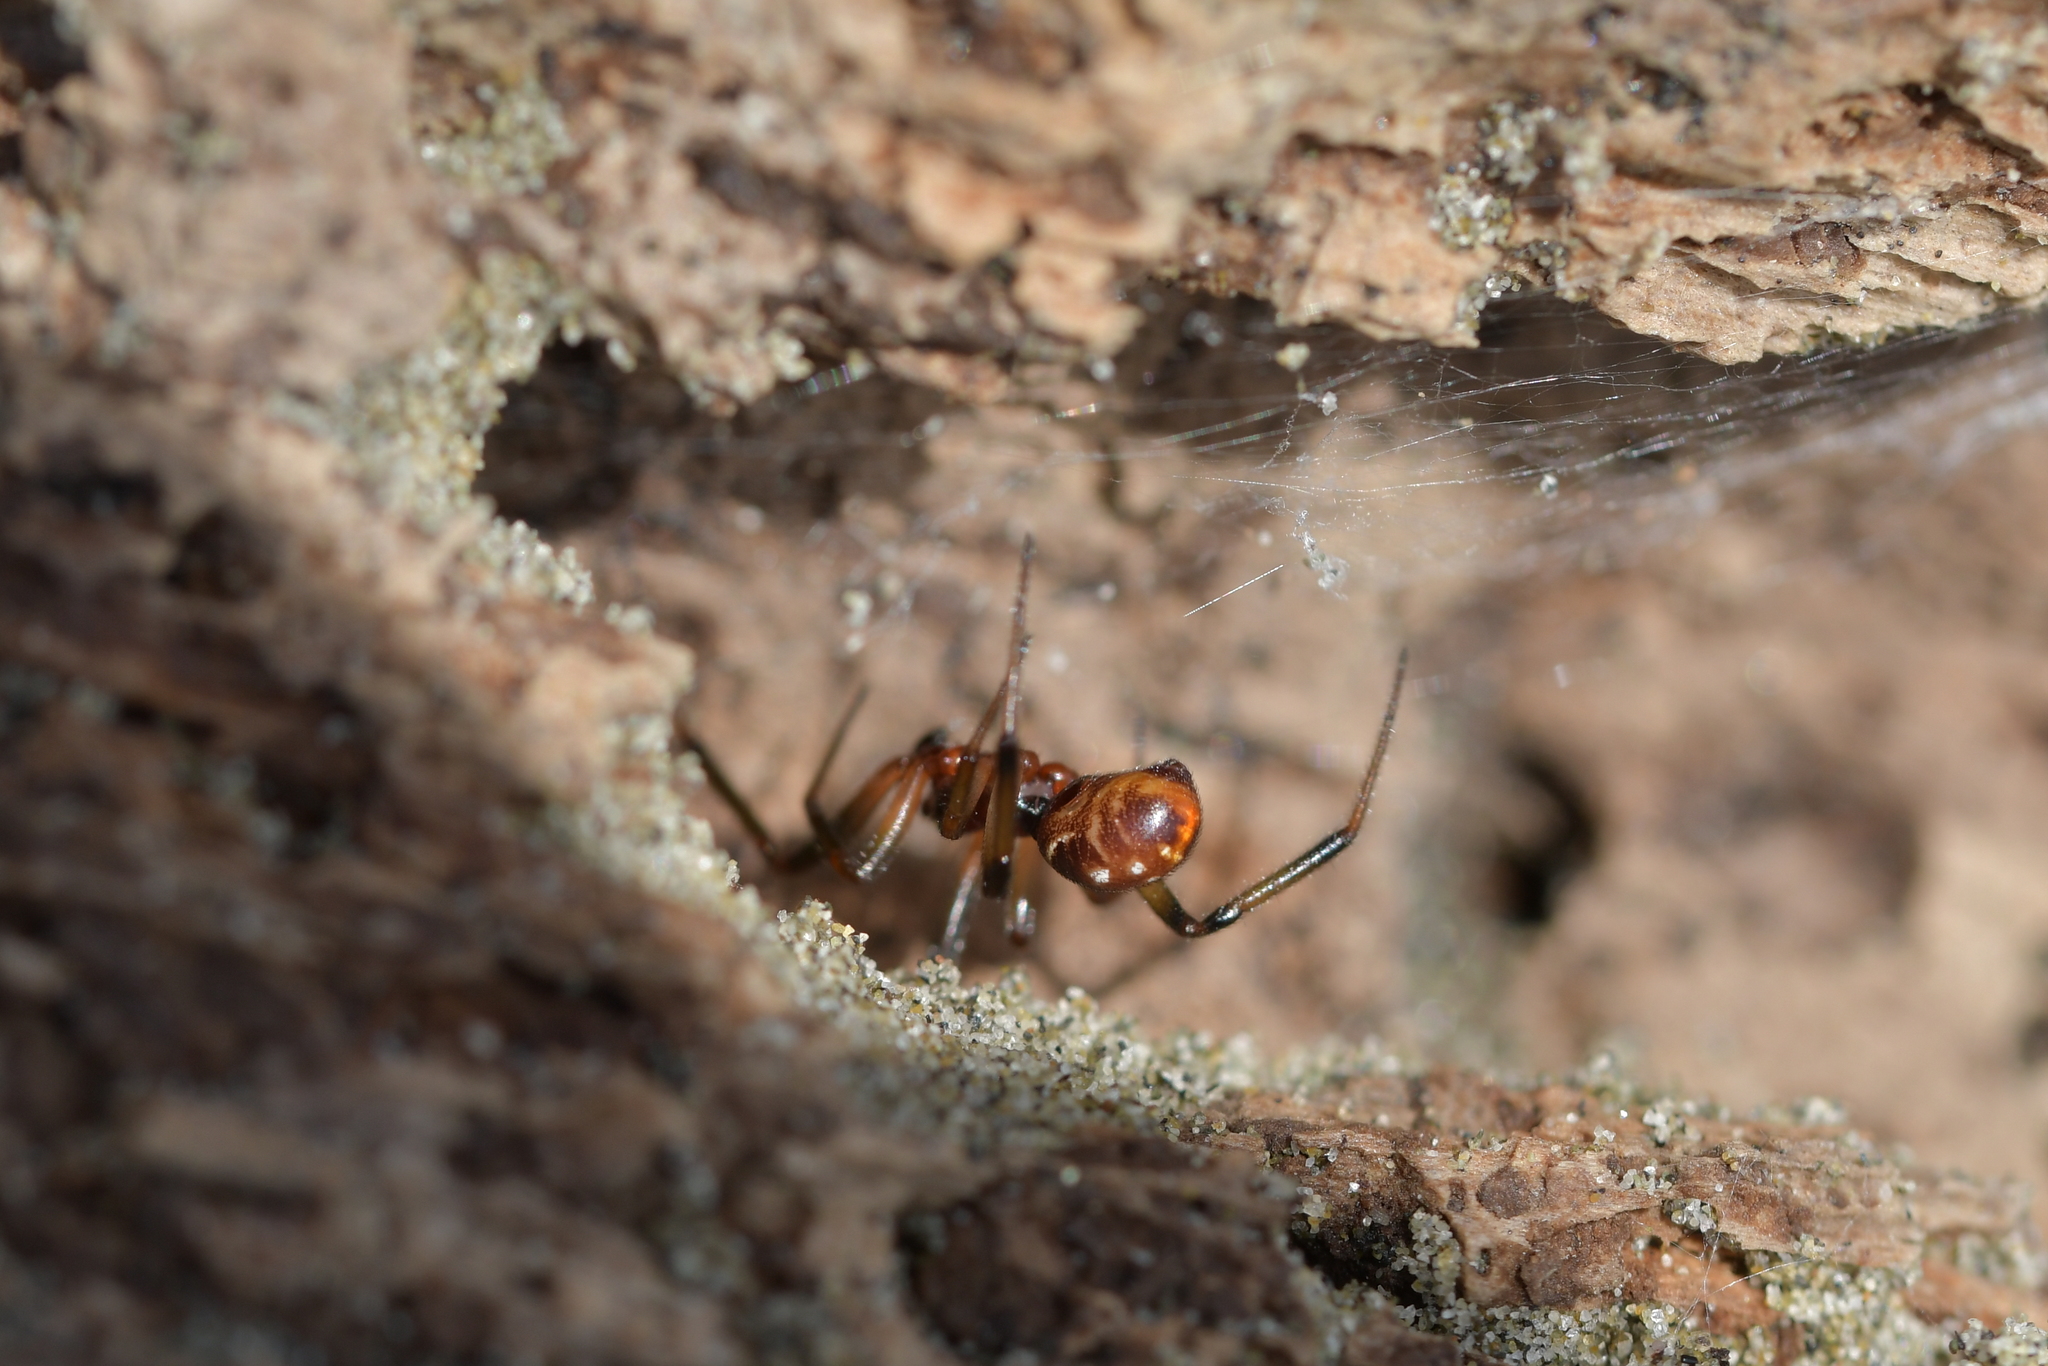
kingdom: Animalia
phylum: Arthropoda
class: Arachnida
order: Araneae
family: Theridiidae
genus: Steatoda
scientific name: Steatoda capensis
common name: Cobweb weaver
